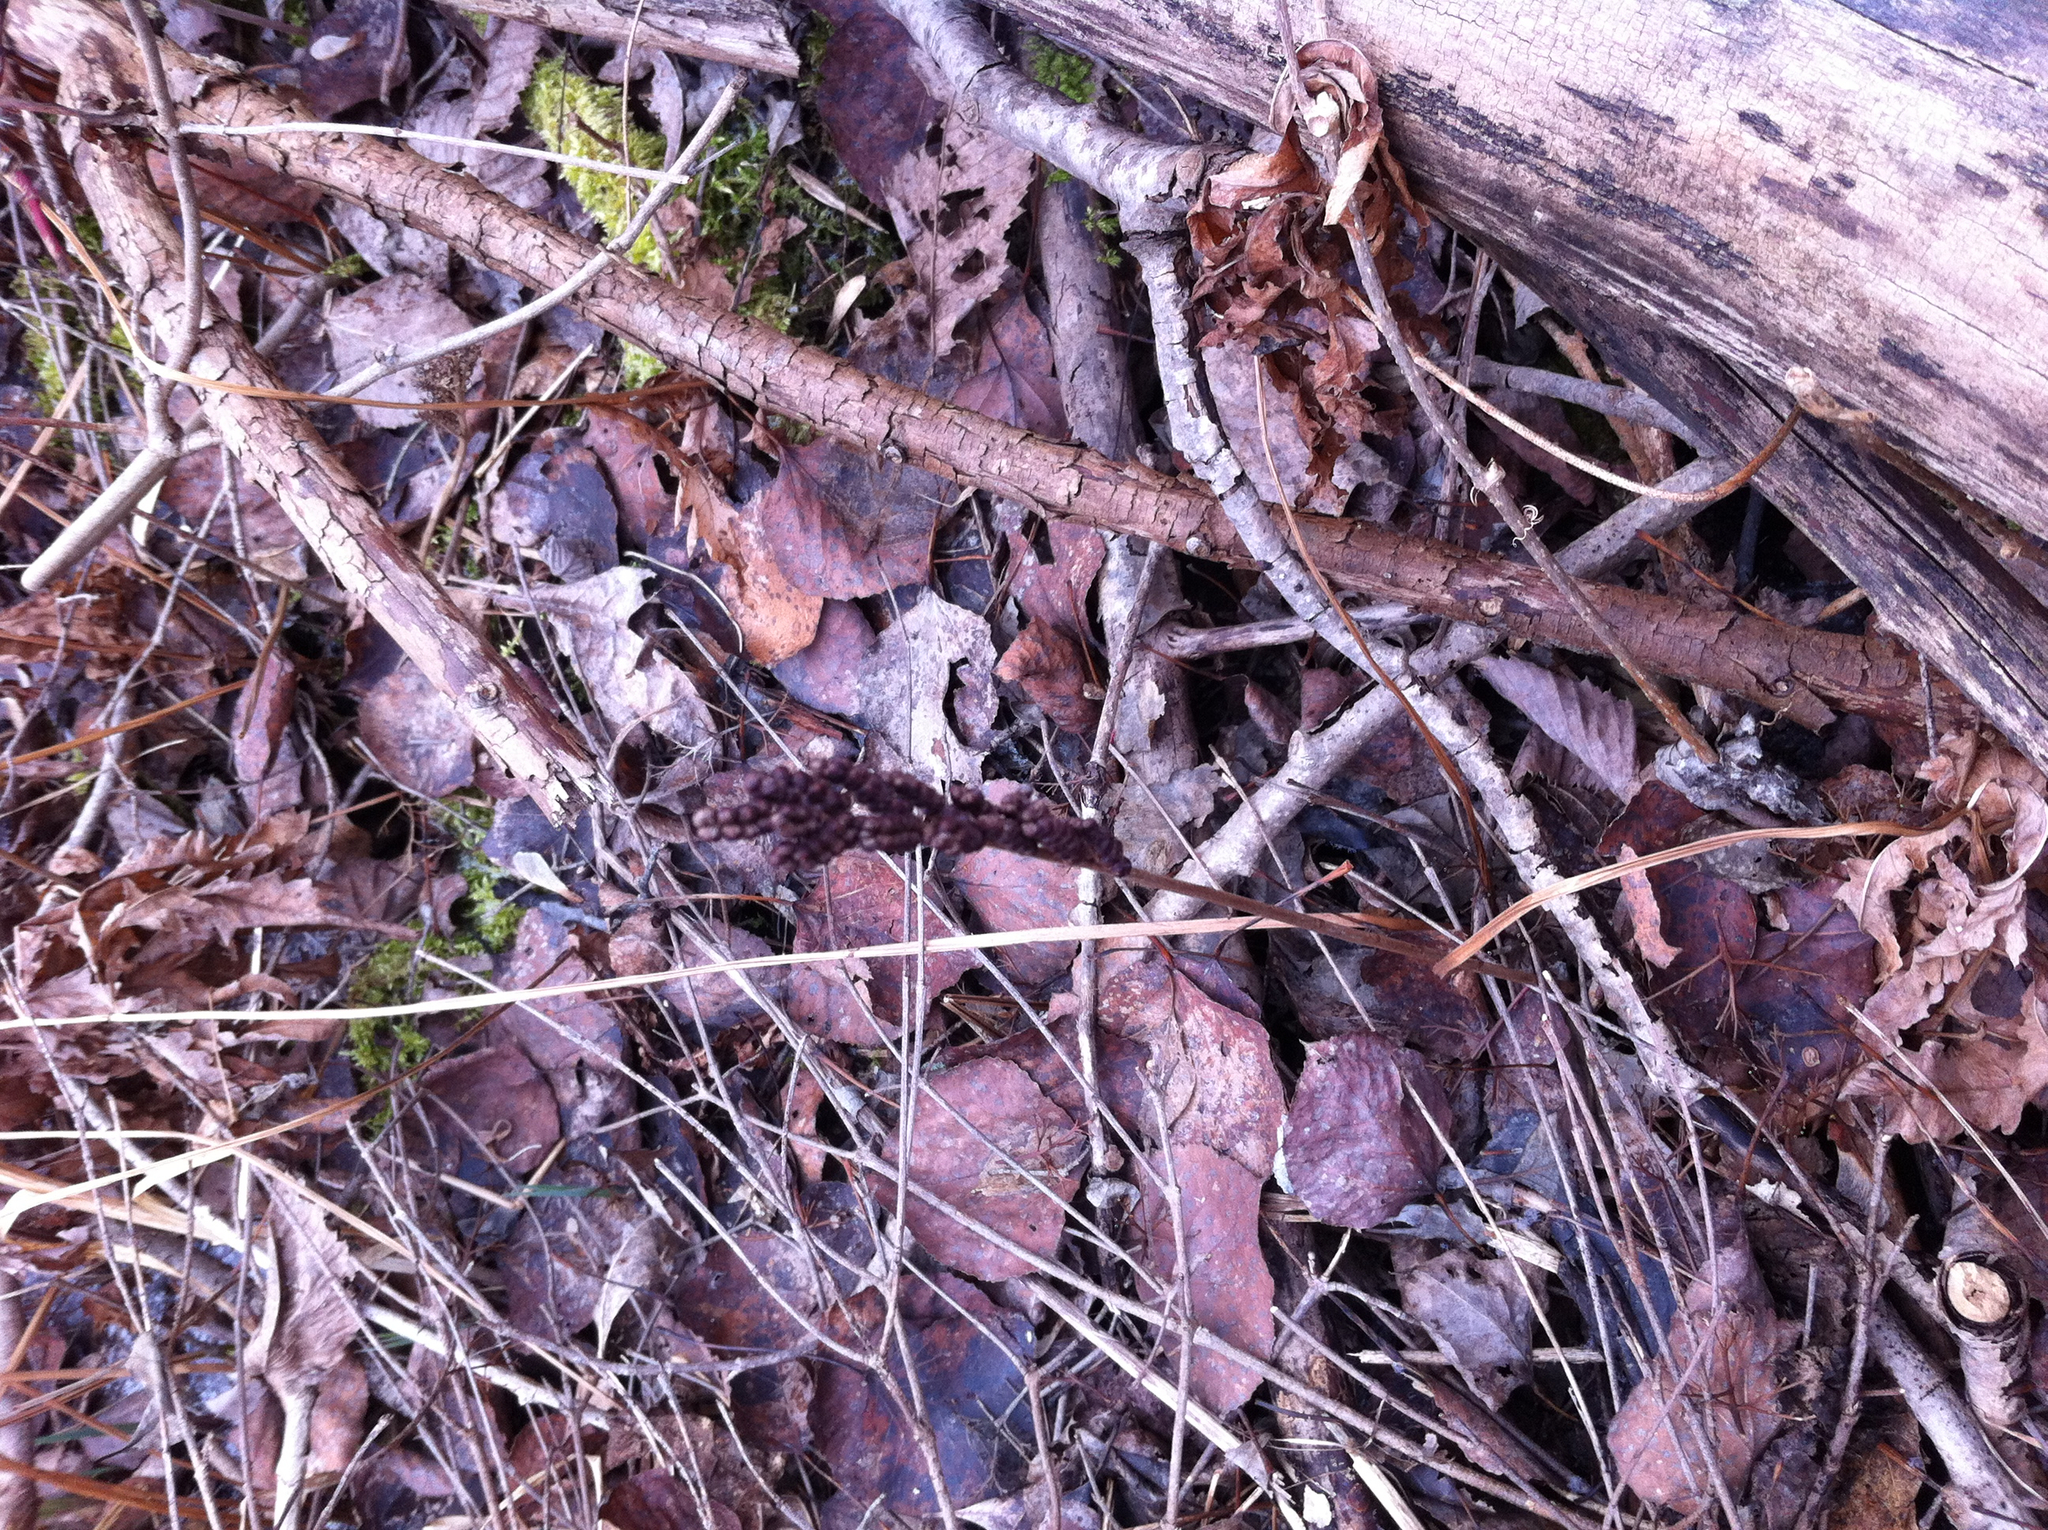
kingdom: Plantae
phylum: Tracheophyta
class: Polypodiopsida
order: Polypodiales
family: Onocleaceae
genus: Onoclea
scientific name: Onoclea sensibilis
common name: Sensitive fern
